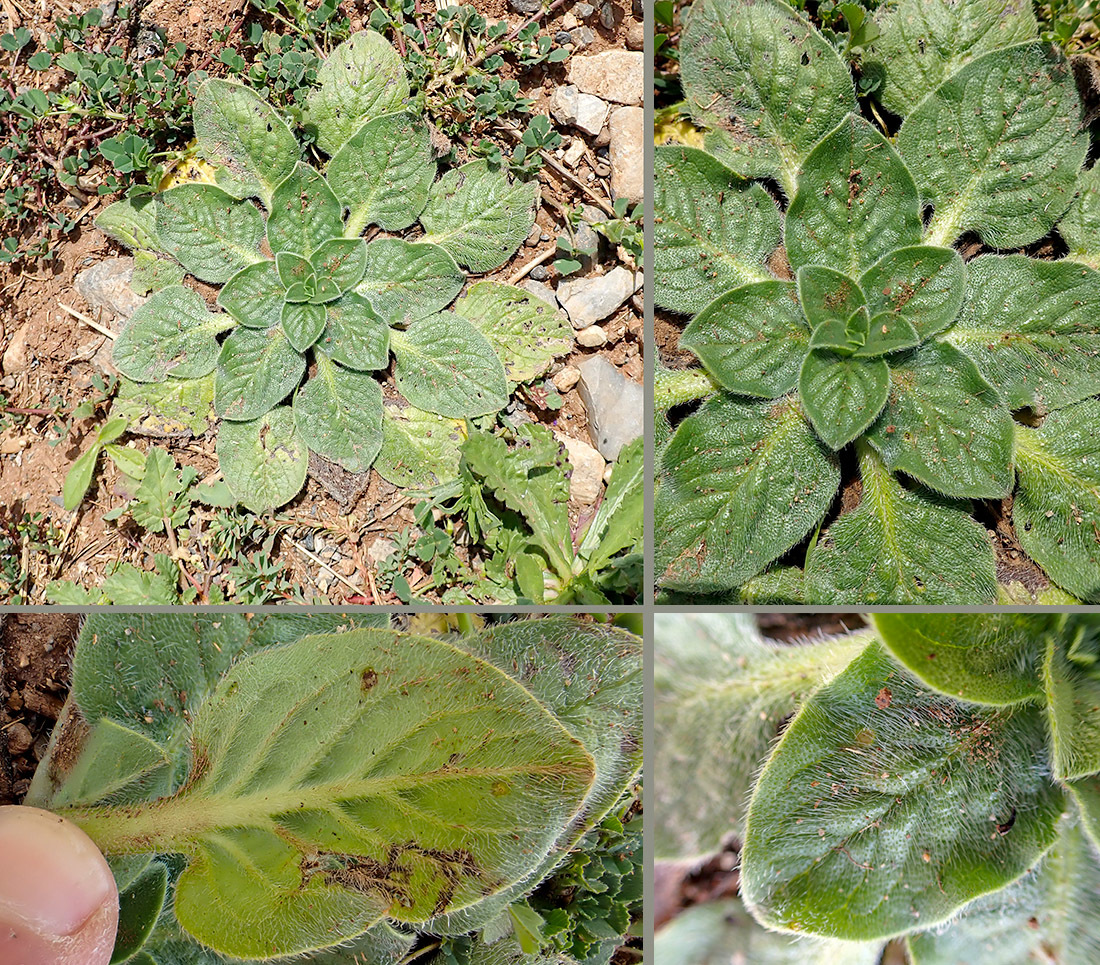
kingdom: Plantae
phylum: Tracheophyta
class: Magnoliopsida
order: Boraginales
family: Boraginaceae
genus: Echium
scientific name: Echium plantagineum
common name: Purple viper's-bugloss
